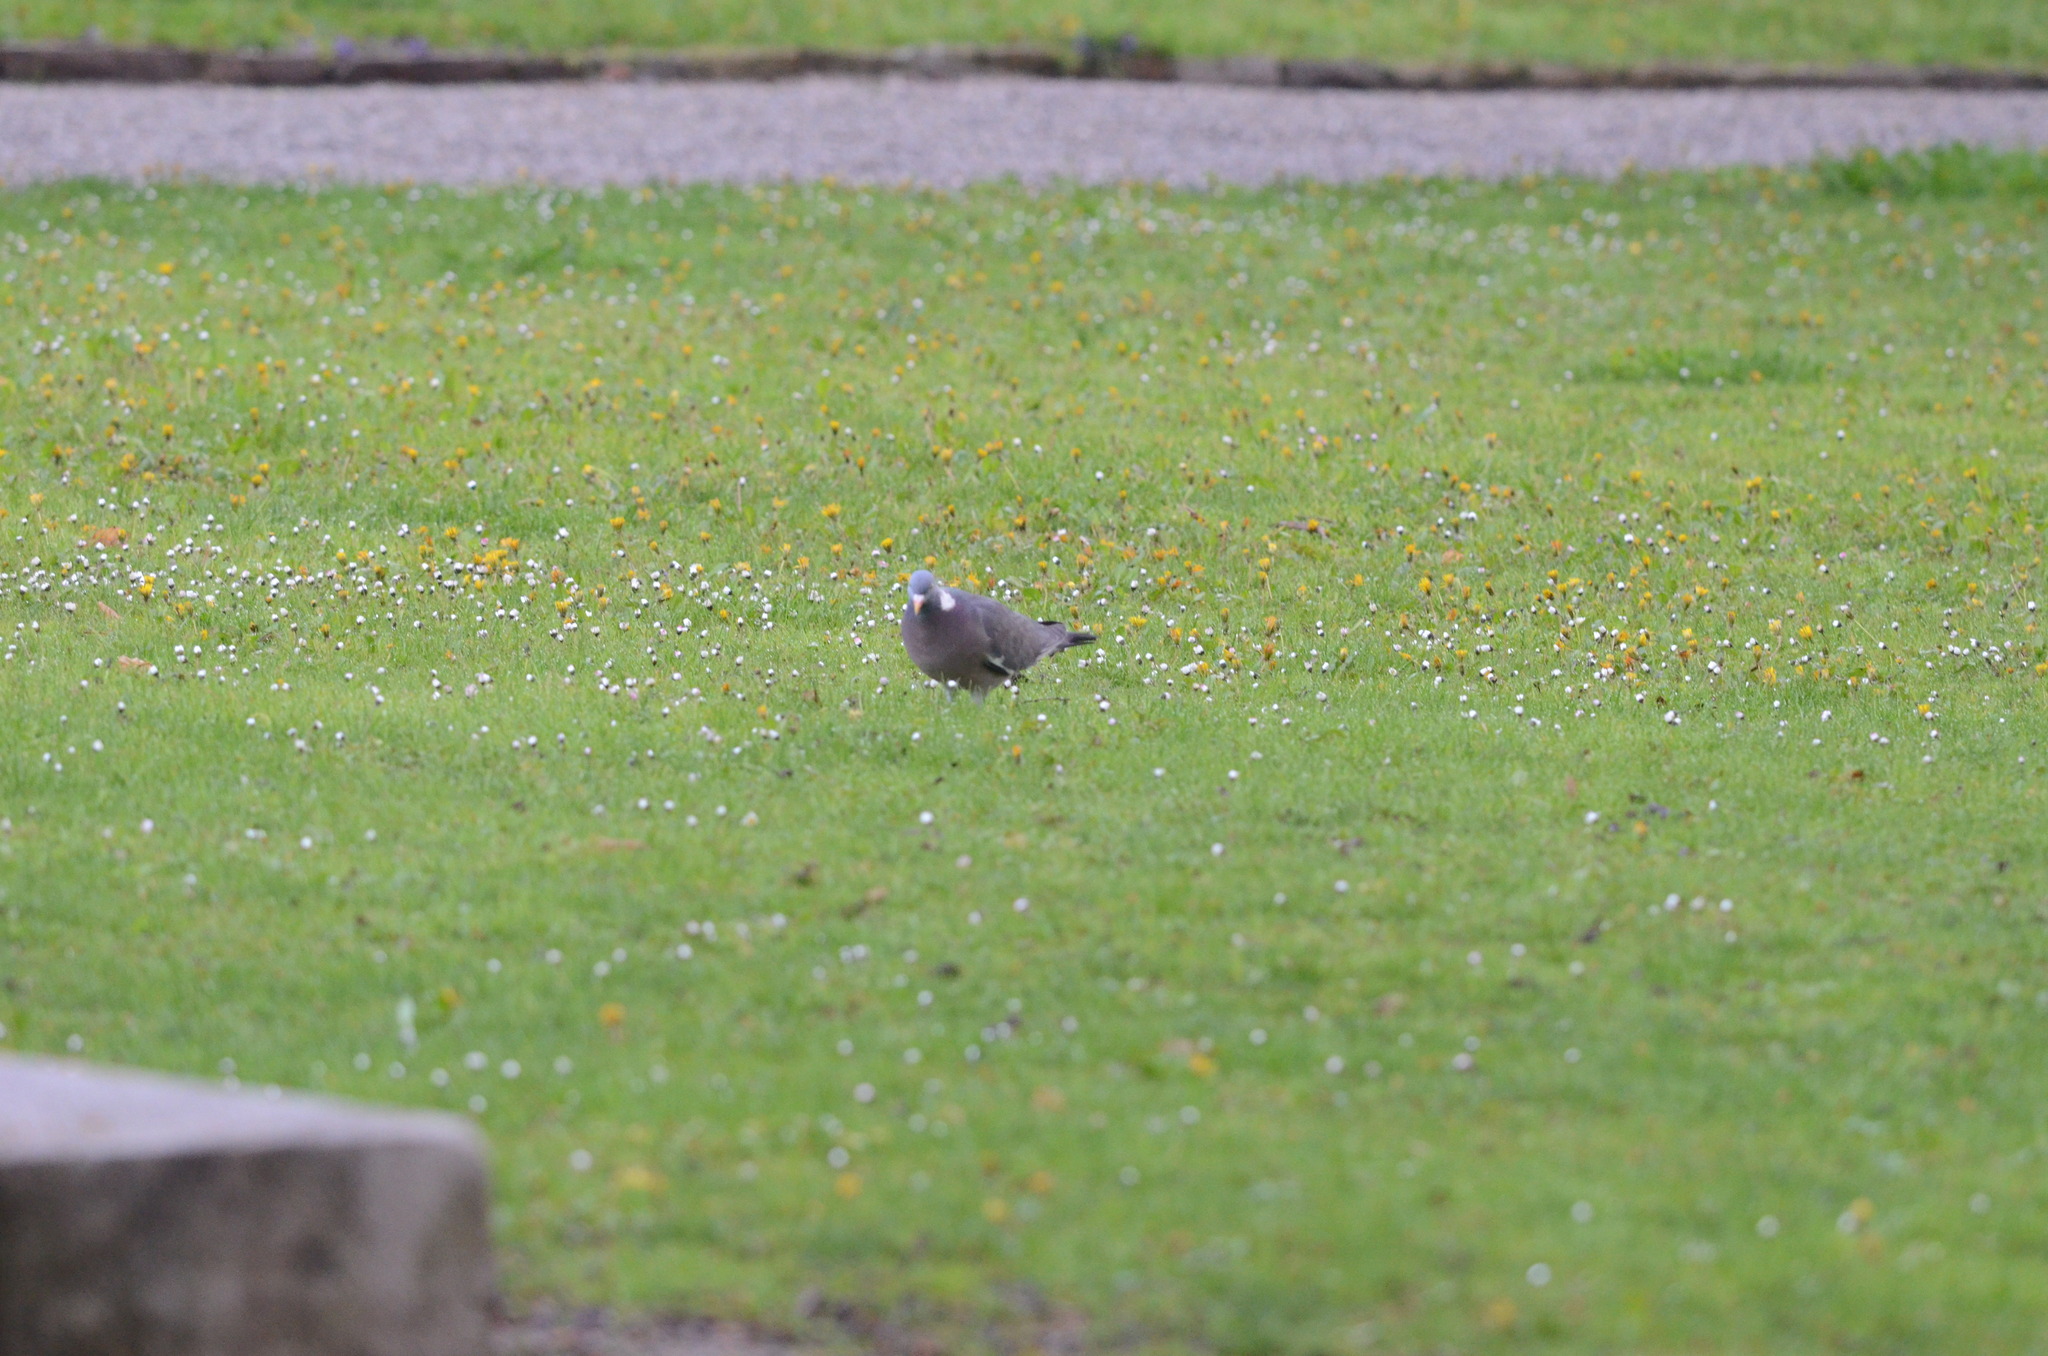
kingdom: Animalia
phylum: Chordata
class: Aves
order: Columbiformes
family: Columbidae
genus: Columba
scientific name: Columba palumbus
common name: Common wood pigeon
